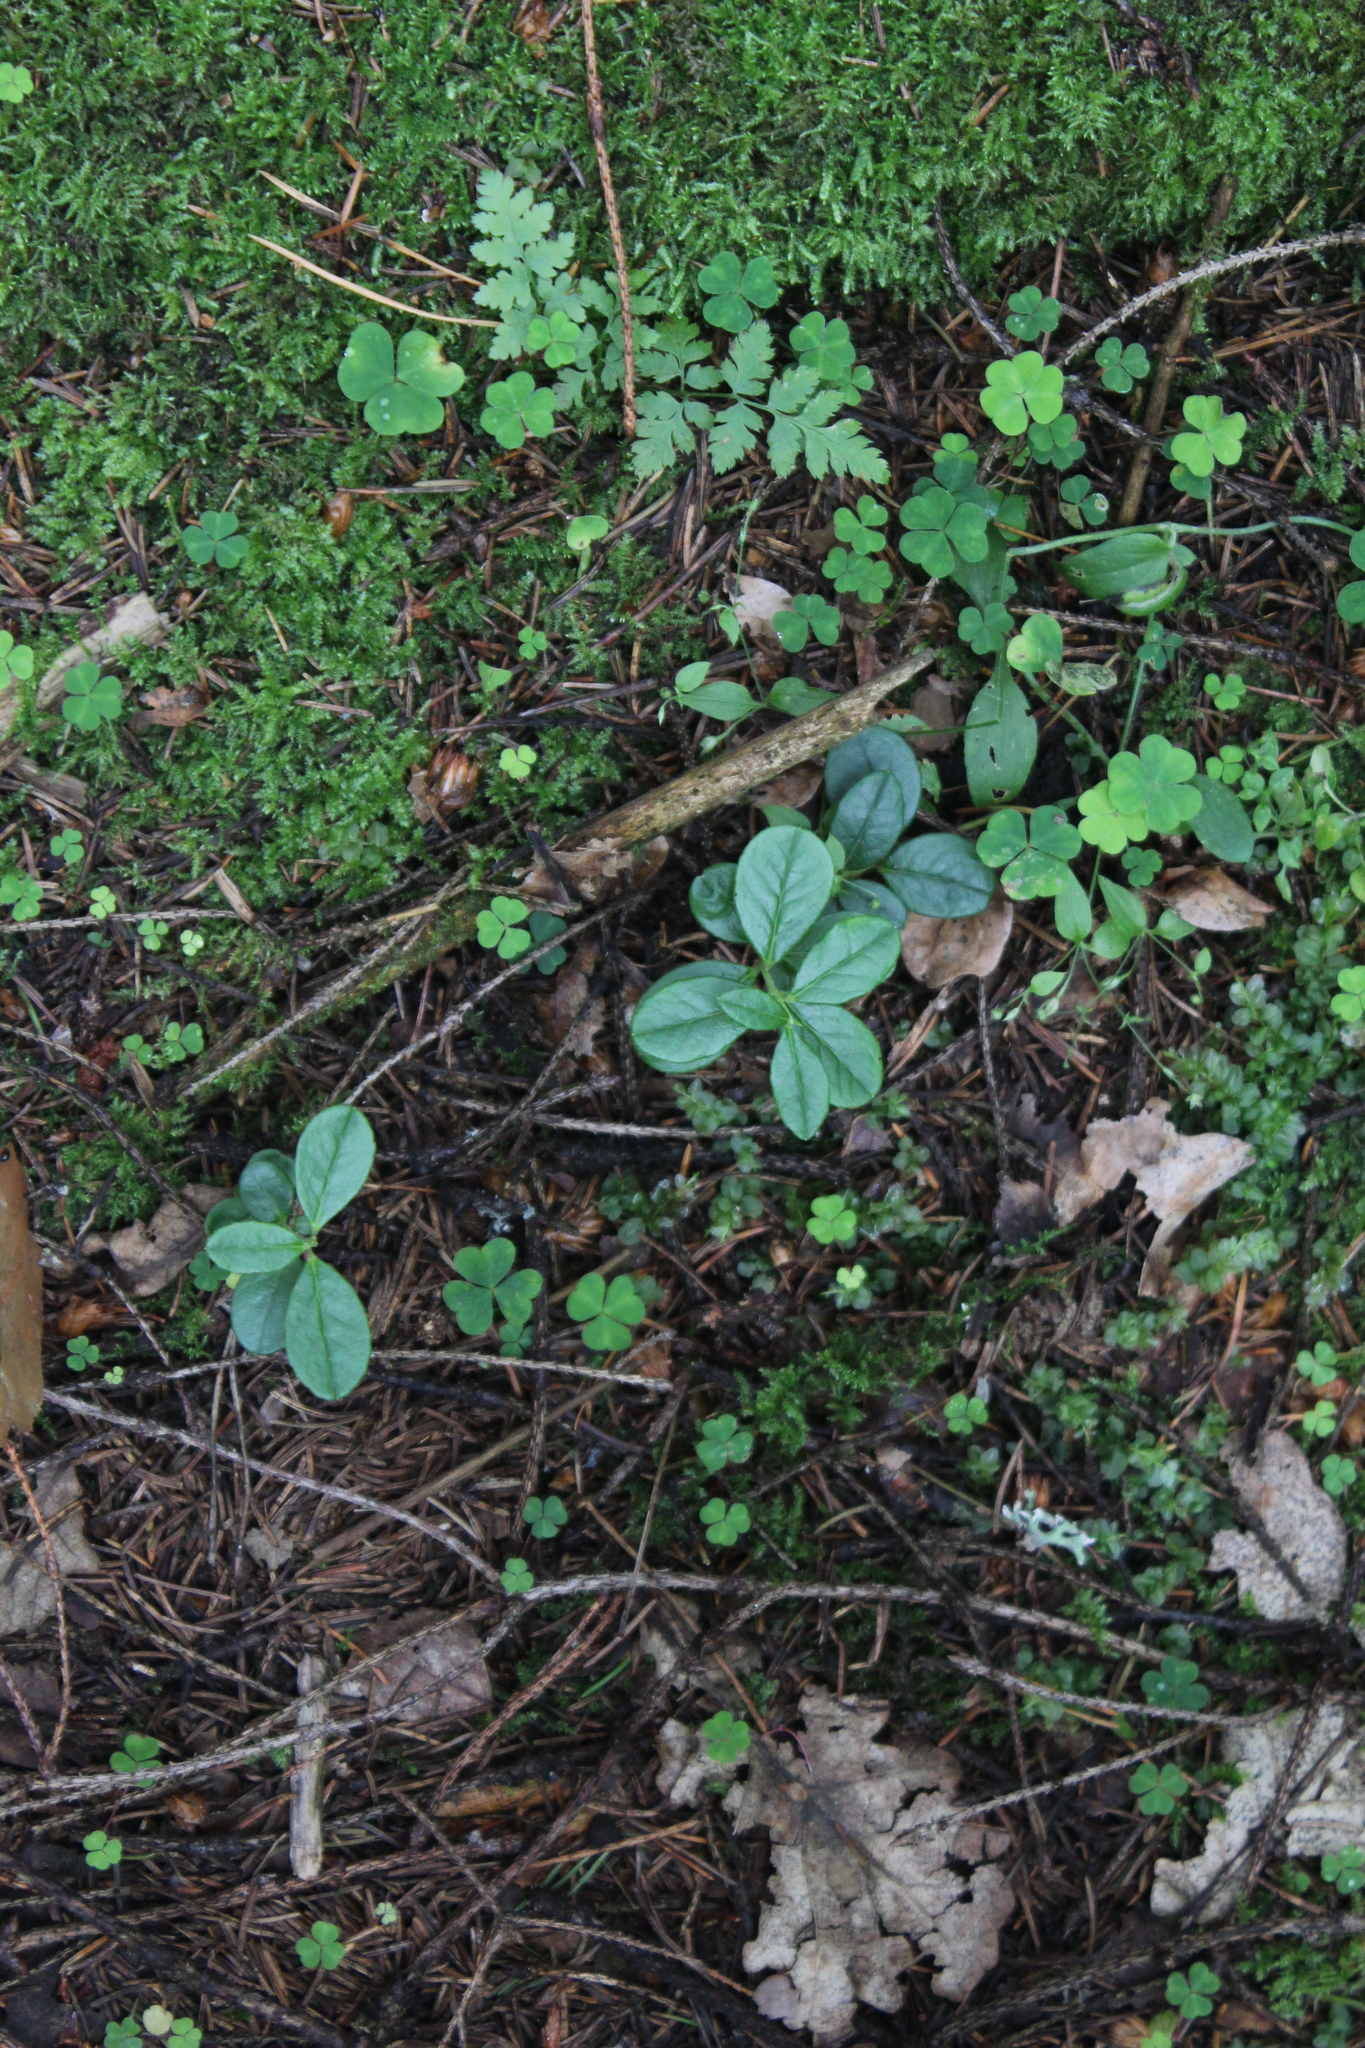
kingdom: Plantae
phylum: Tracheophyta
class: Magnoliopsida
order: Ericales
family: Ericaceae
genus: Vaccinium
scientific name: Vaccinium vitis-idaea
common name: Cowberry
